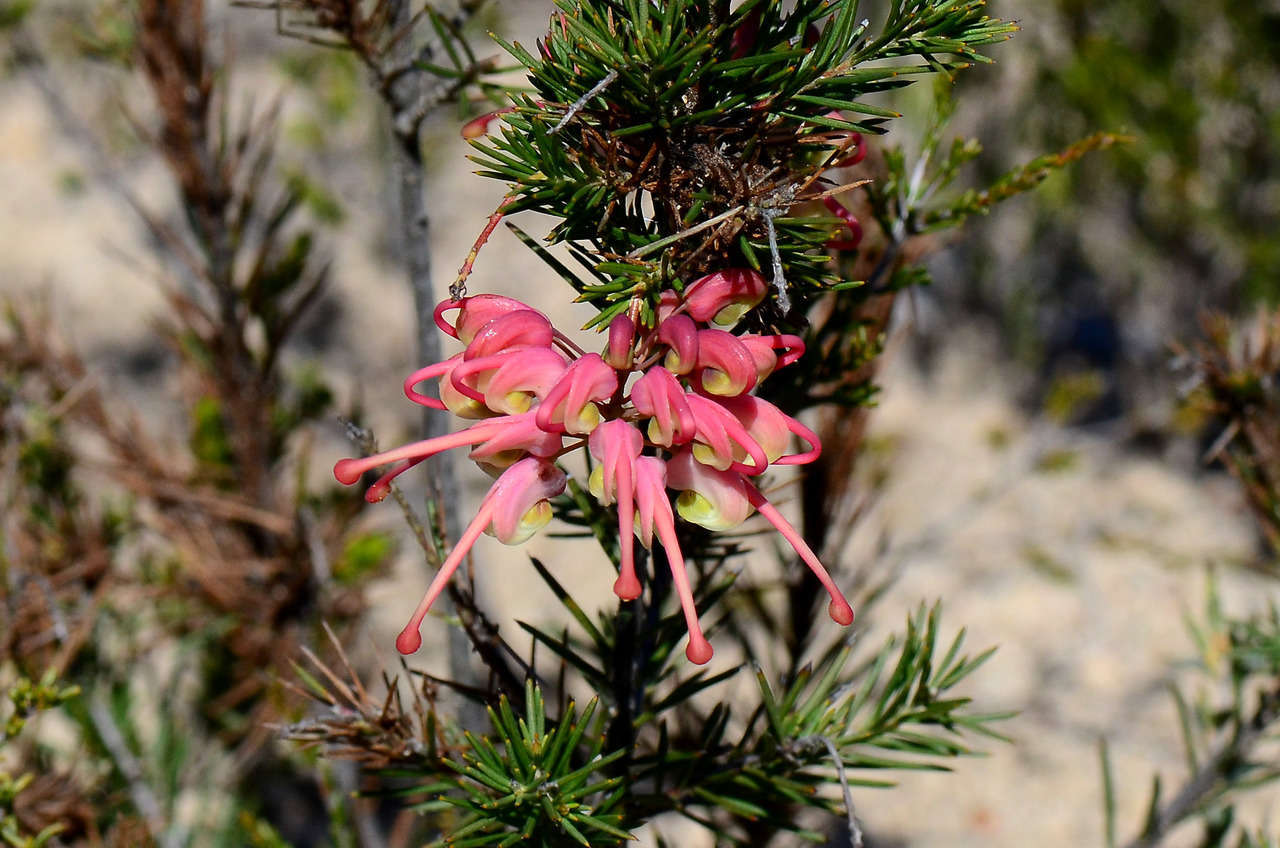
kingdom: Plantae
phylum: Tracheophyta
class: Magnoliopsida
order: Proteales
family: Proteaceae
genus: Grevillea
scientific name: Grevillea rosmarinifolia
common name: Rosemary grevillea
